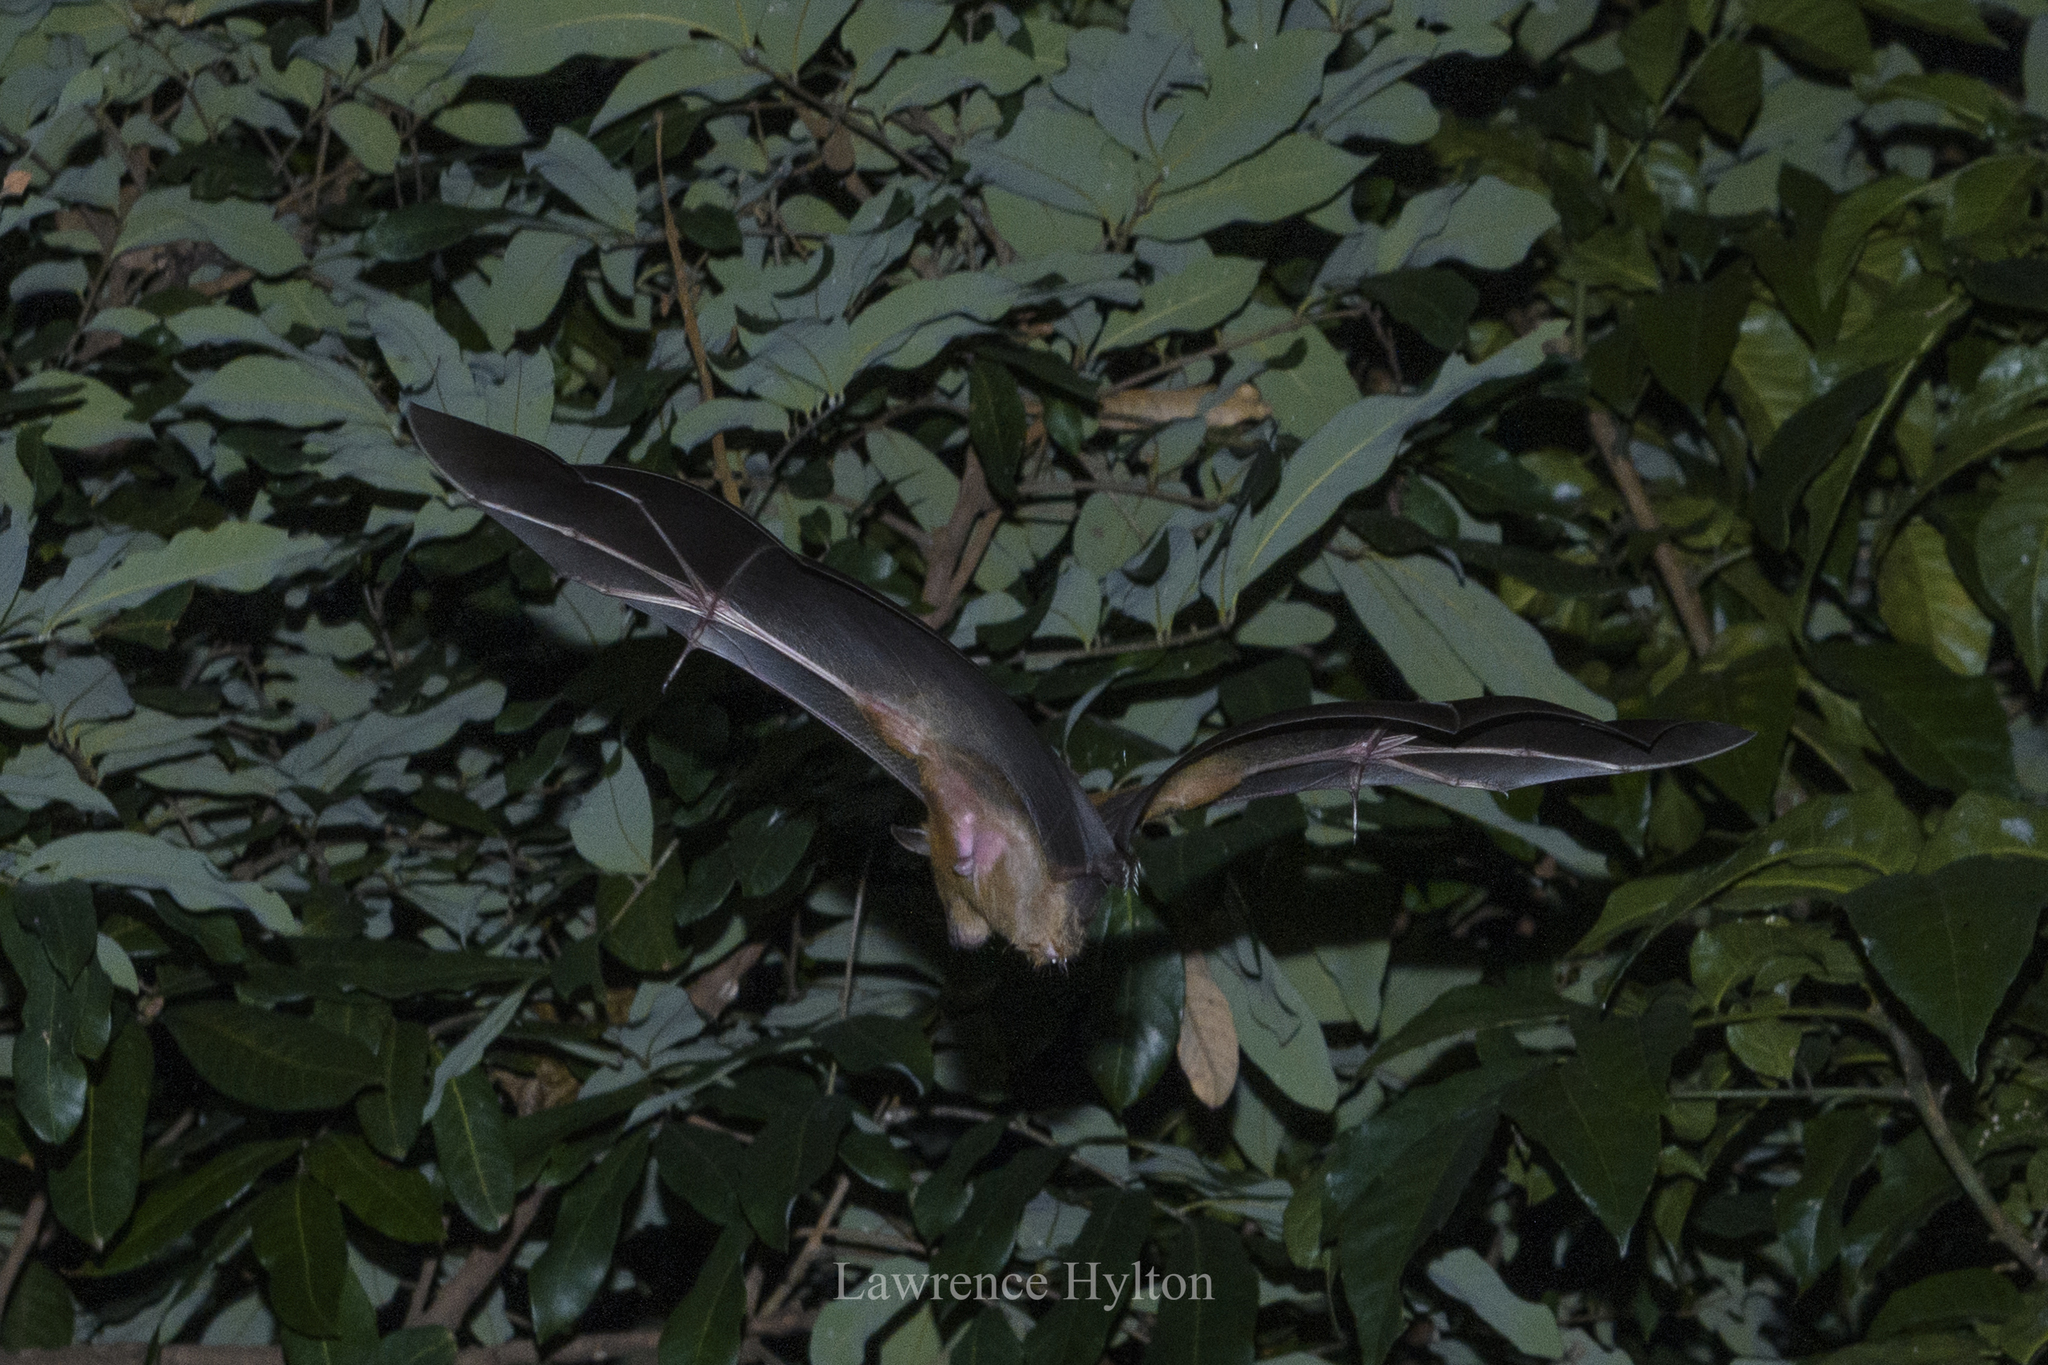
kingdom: Animalia
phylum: Chordata
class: Mammalia
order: Chiroptera
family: Pteropodidae
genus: Cynopterus
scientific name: Cynopterus sphinx
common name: Greater short-nosed fruit bat
